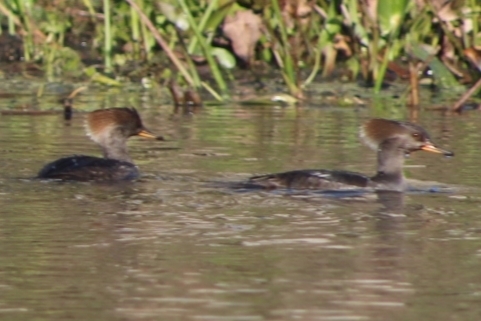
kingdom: Animalia
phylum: Chordata
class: Aves
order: Anseriformes
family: Anatidae
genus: Lophodytes
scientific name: Lophodytes cucullatus
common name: Hooded merganser
